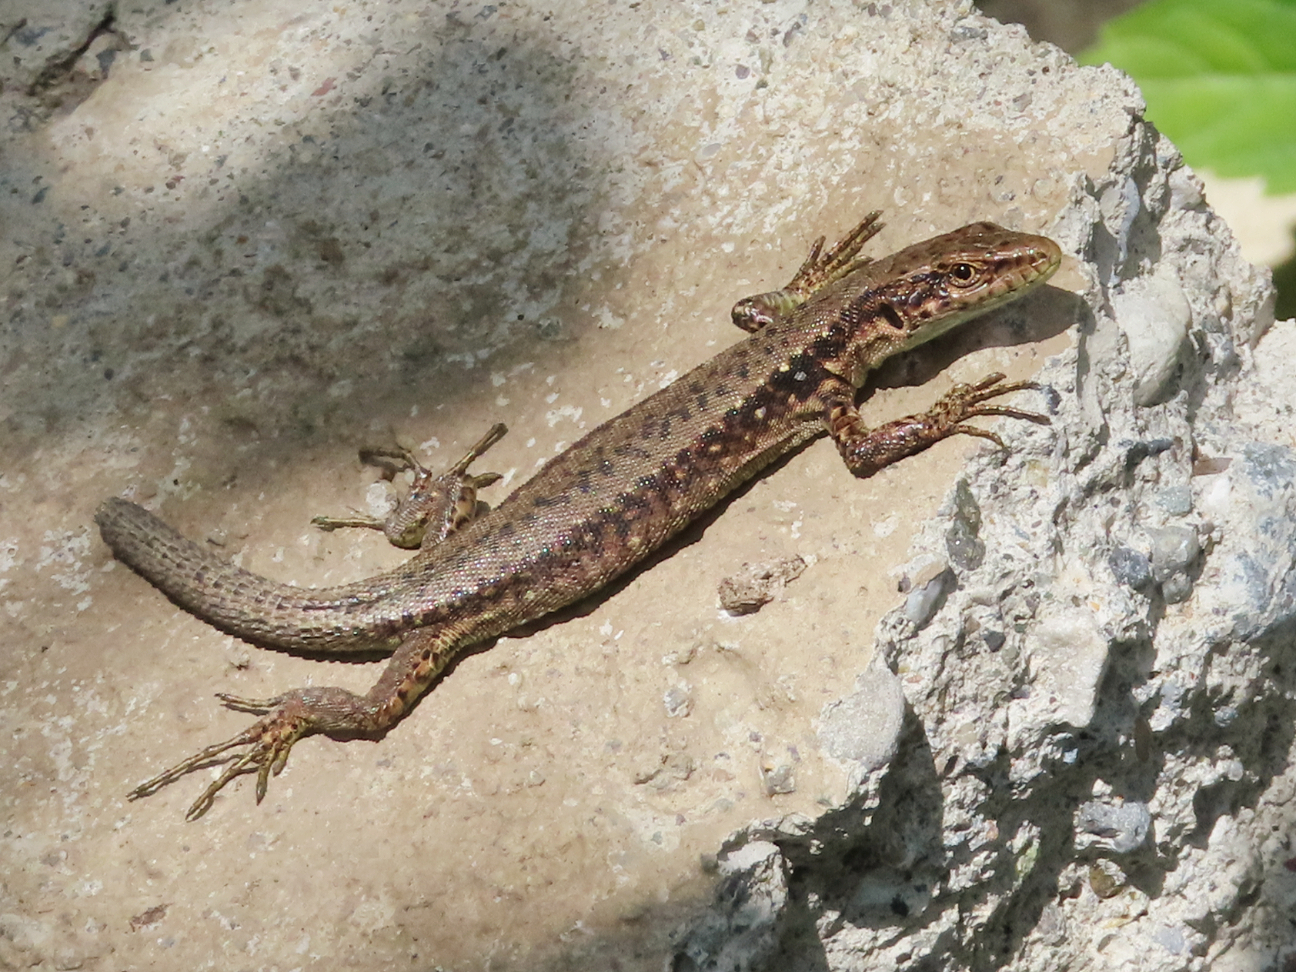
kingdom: Animalia
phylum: Chordata
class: Squamata
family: Lacertidae
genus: Darevskia
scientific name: Darevskia armeniaca
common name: Armenian lizard
